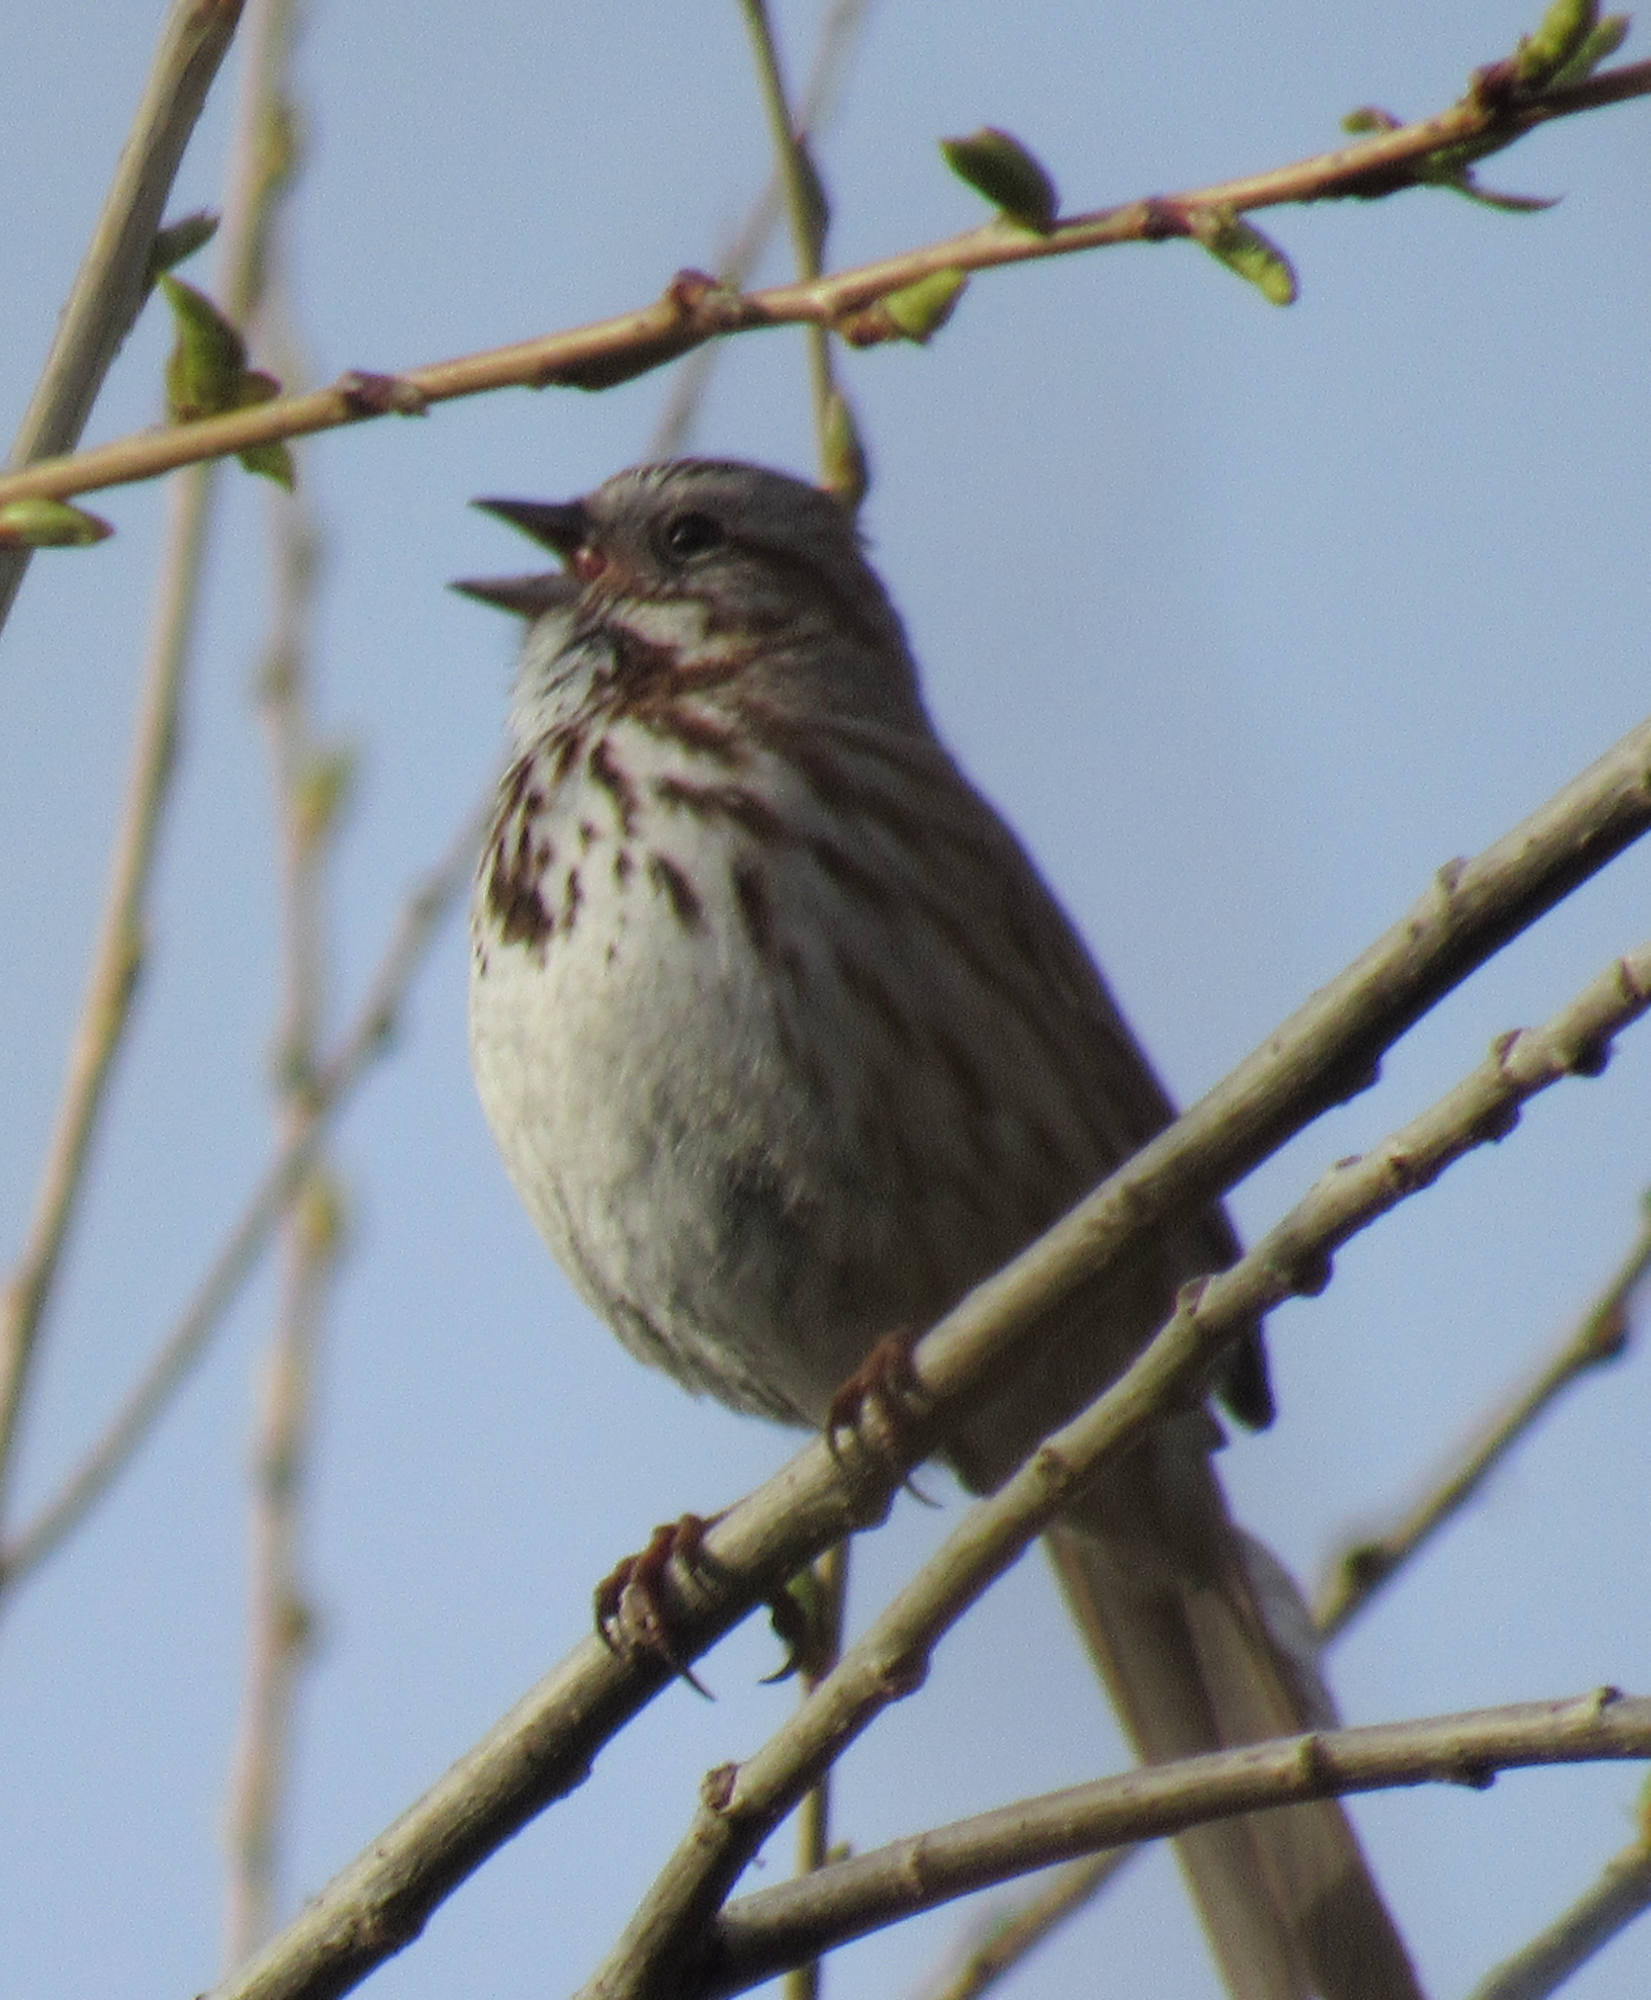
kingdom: Animalia
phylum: Chordata
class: Aves
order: Passeriformes
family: Passerellidae
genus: Melospiza
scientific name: Melospiza melodia
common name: Song sparrow
